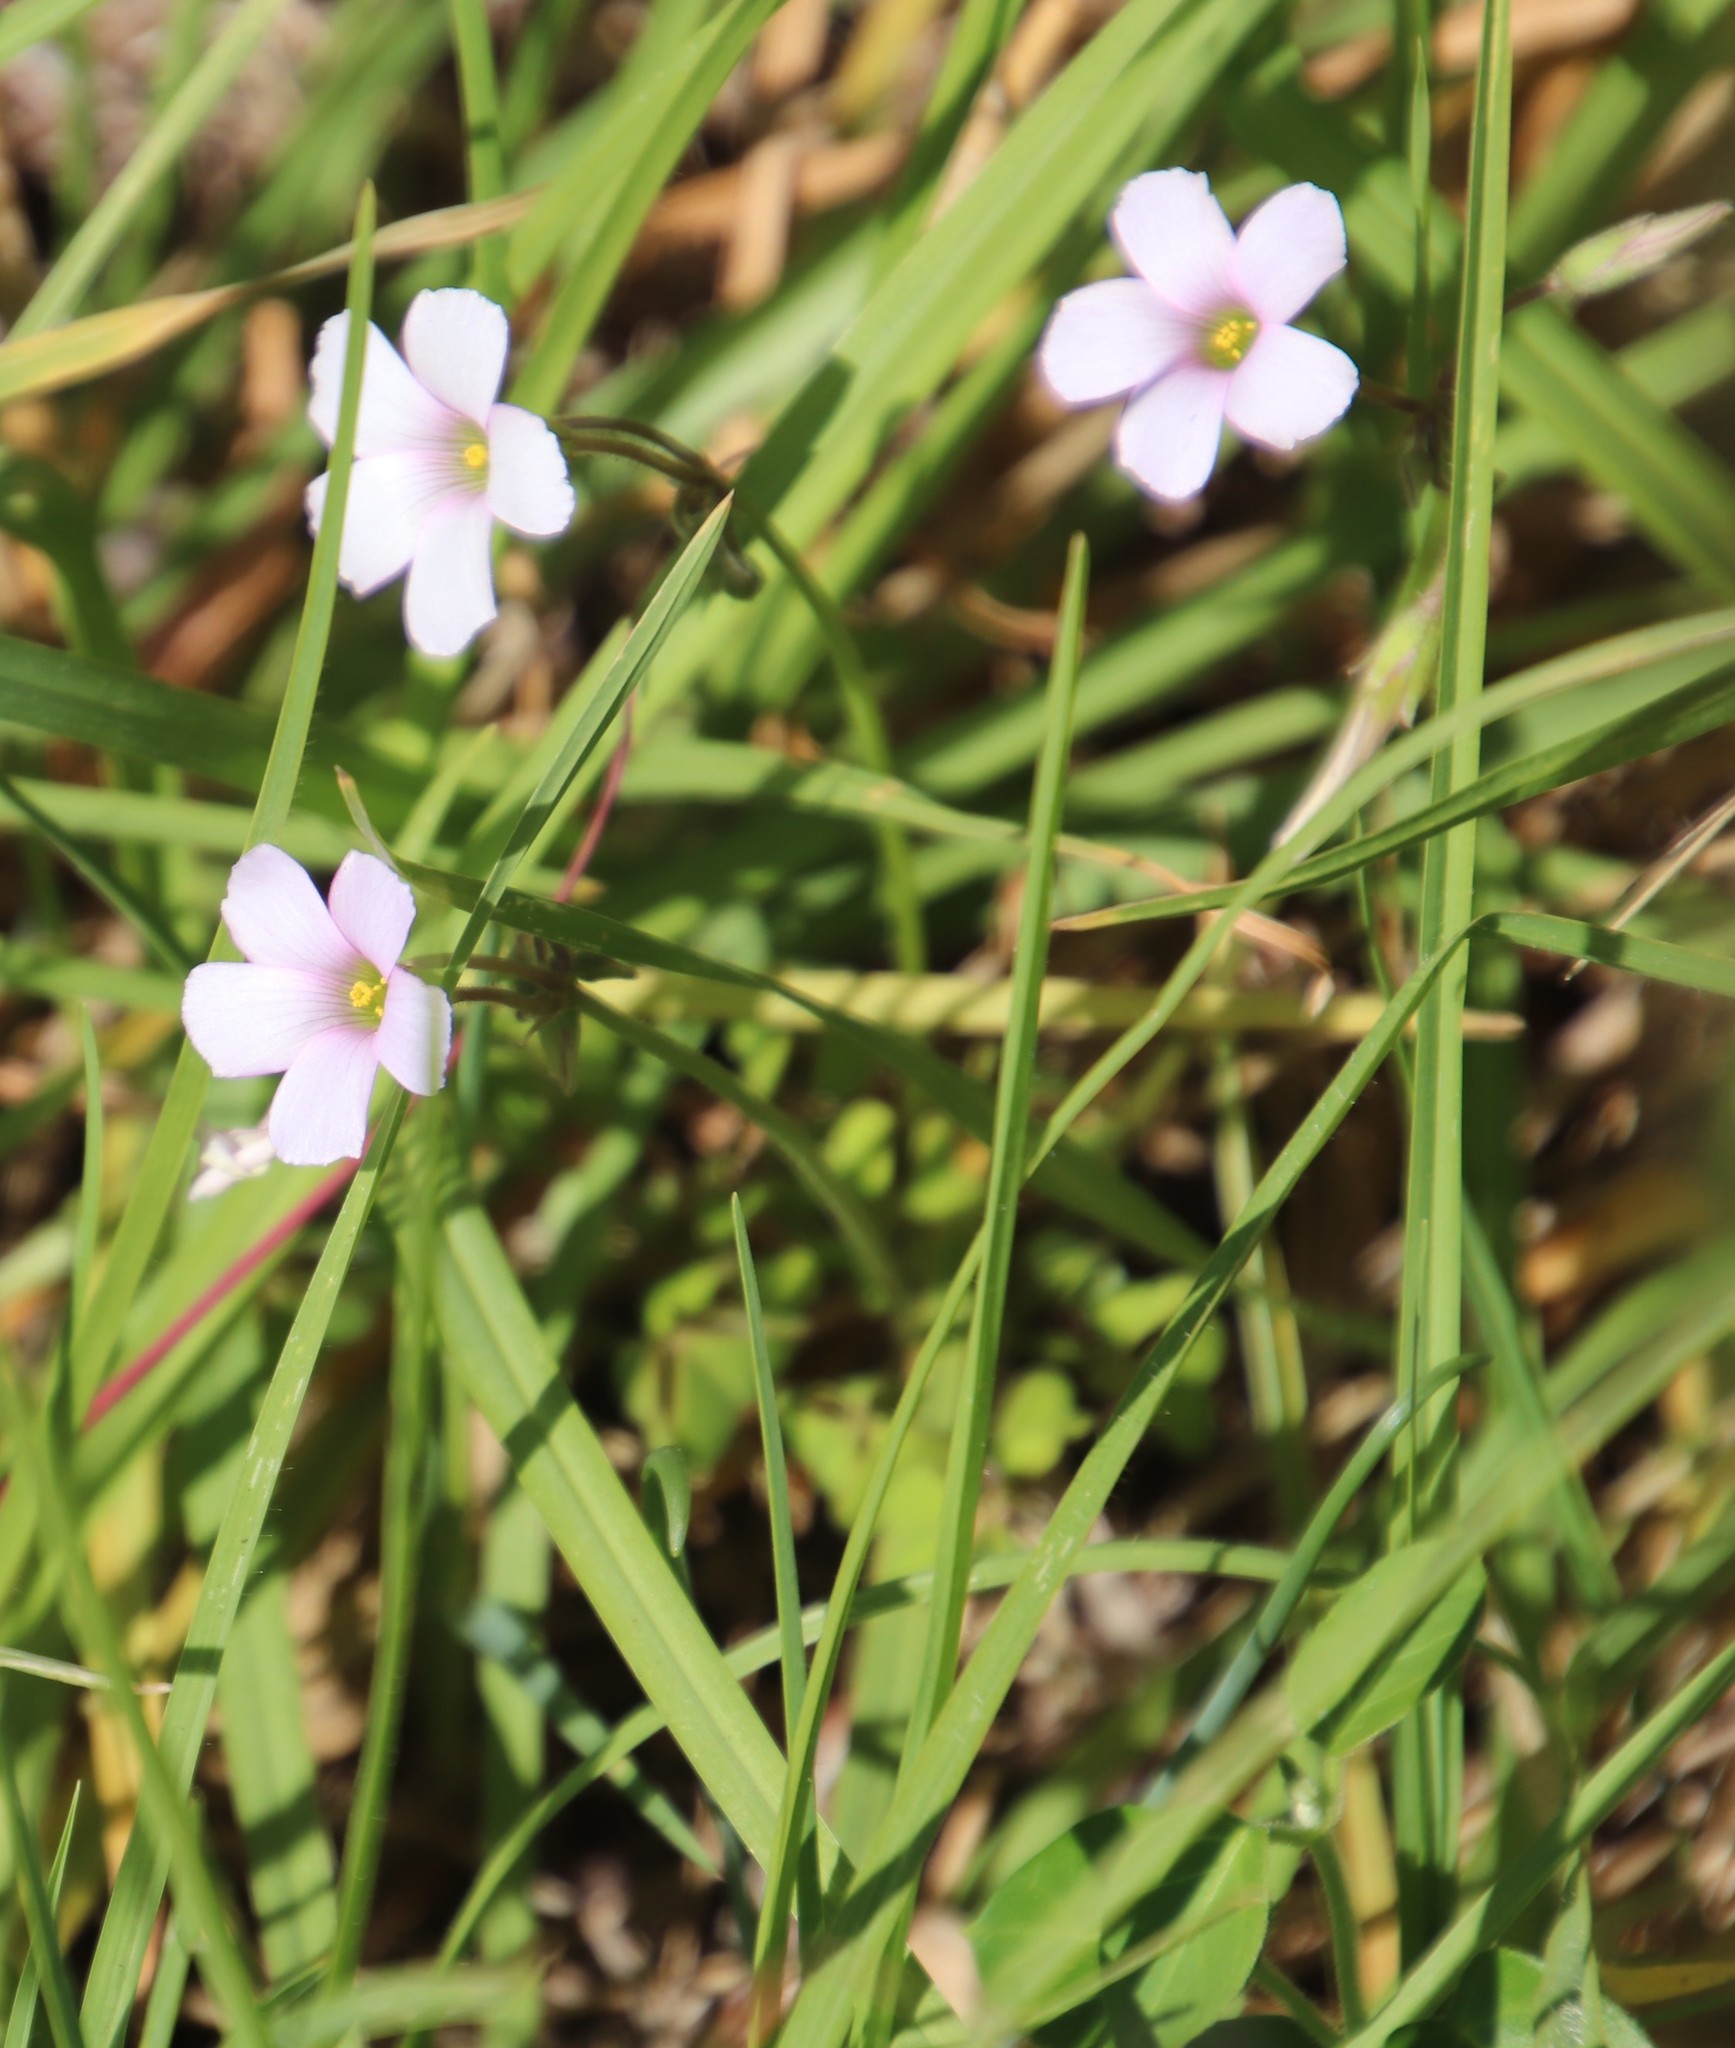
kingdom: Plantae
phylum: Tracheophyta
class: Magnoliopsida
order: Oxalidales
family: Oxalidaceae
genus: Oxalis
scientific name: Oxalis
